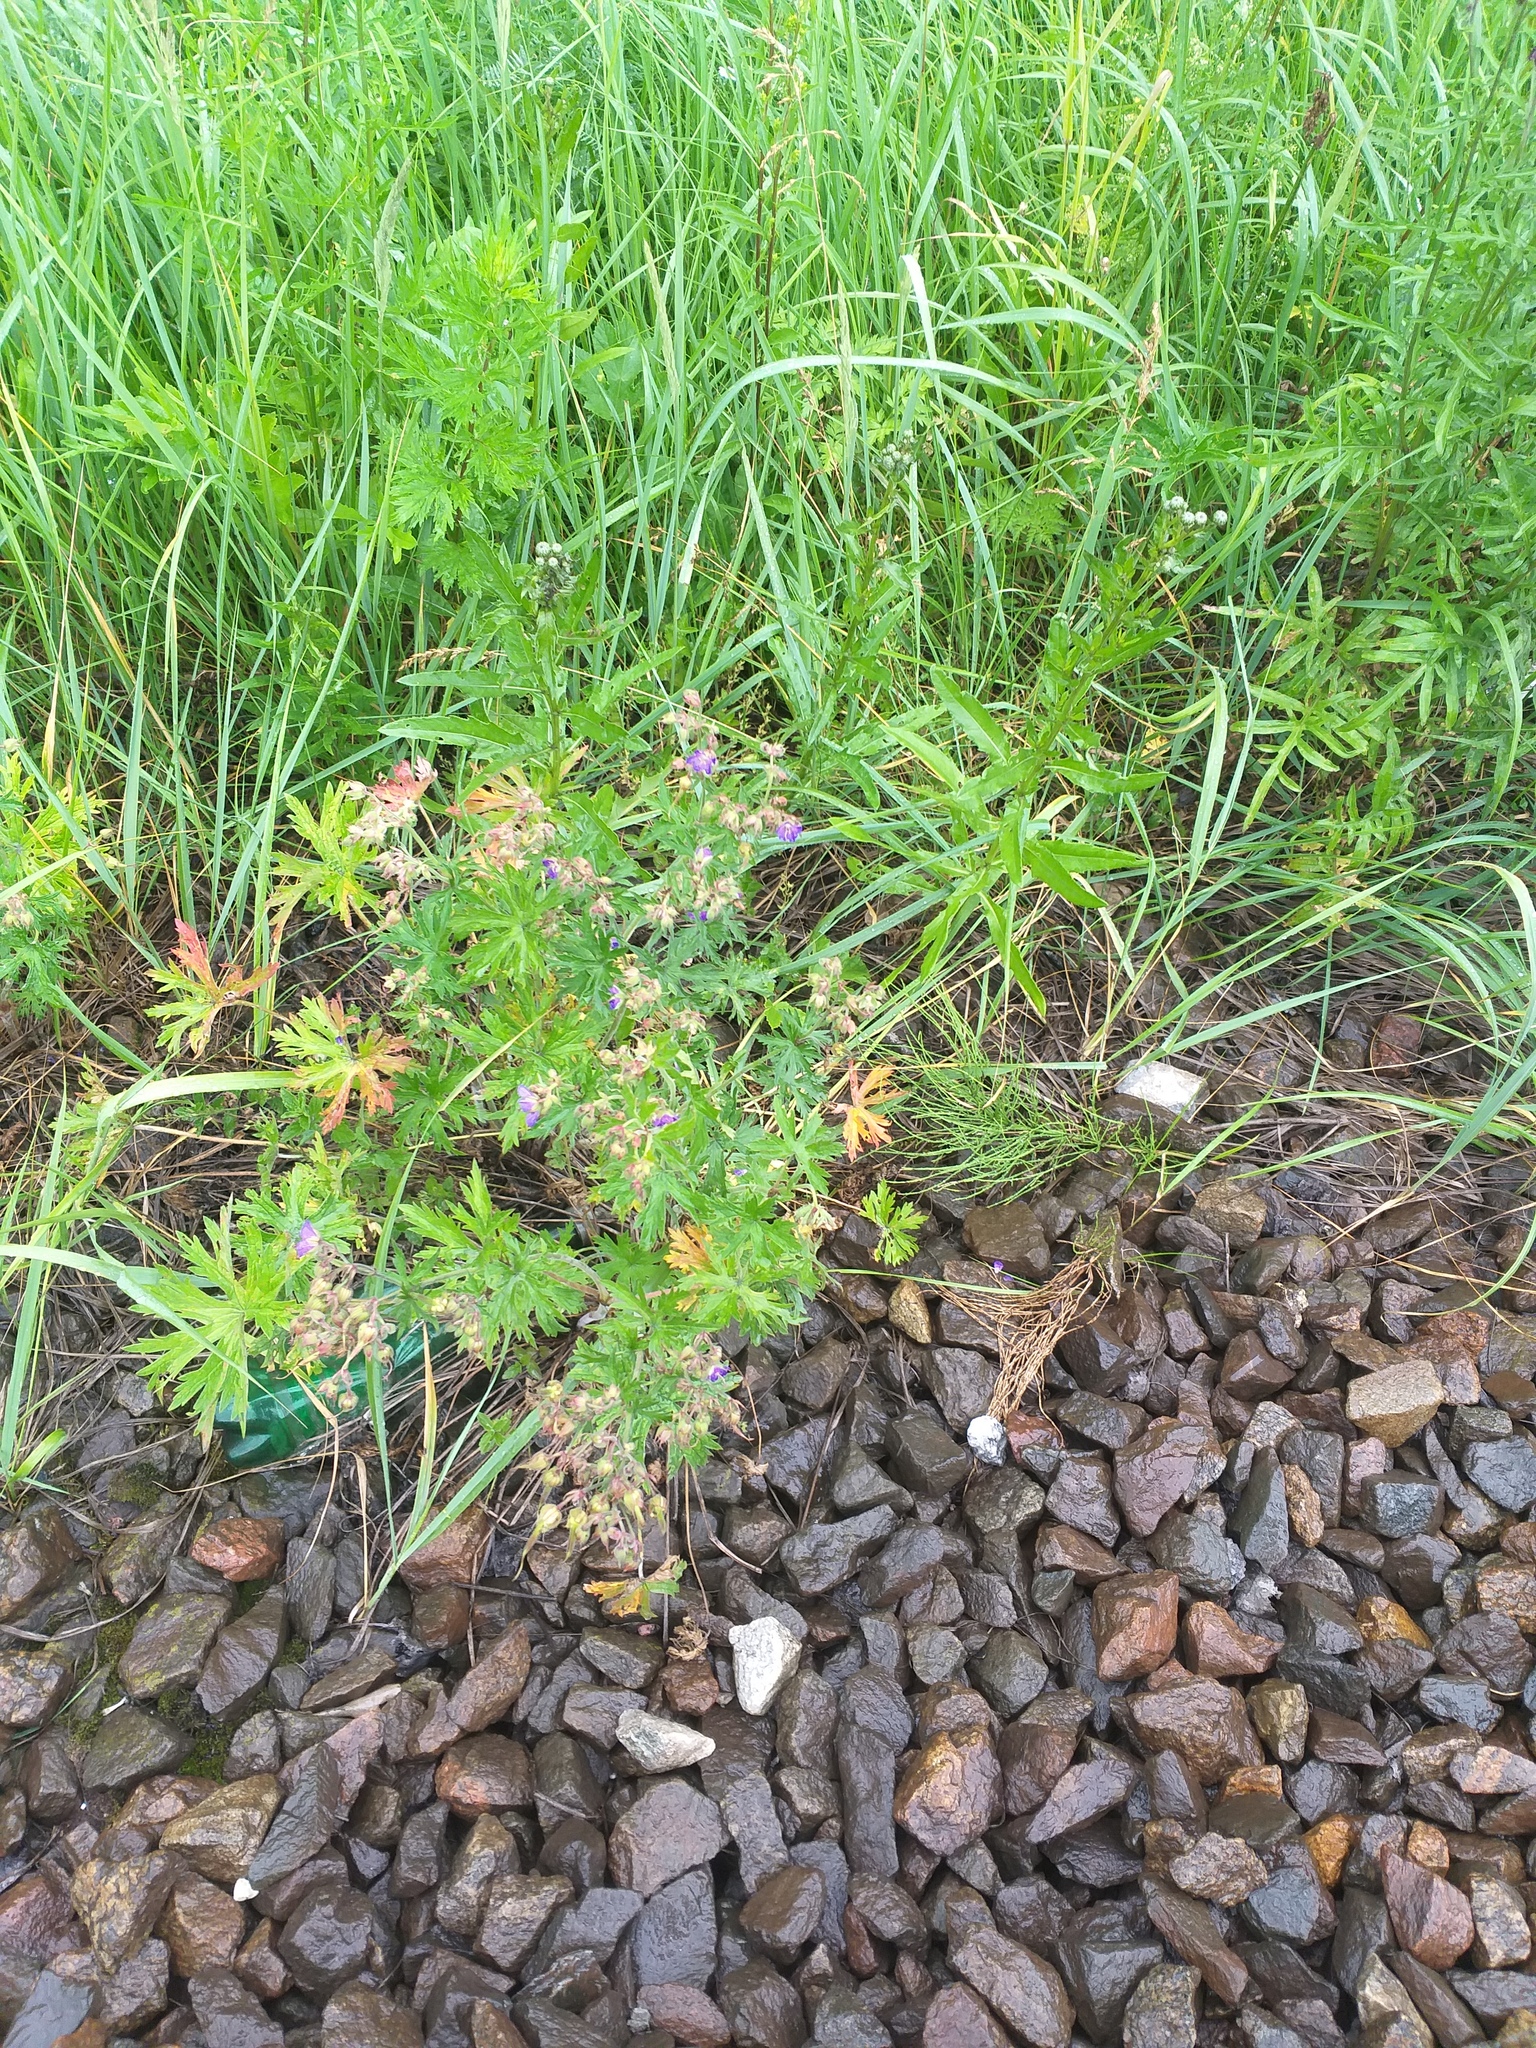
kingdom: Plantae
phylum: Tracheophyta
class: Magnoliopsida
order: Geraniales
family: Geraniaceae
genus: Geranium
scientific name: Geranium pratense
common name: Meadow crane's-bill
